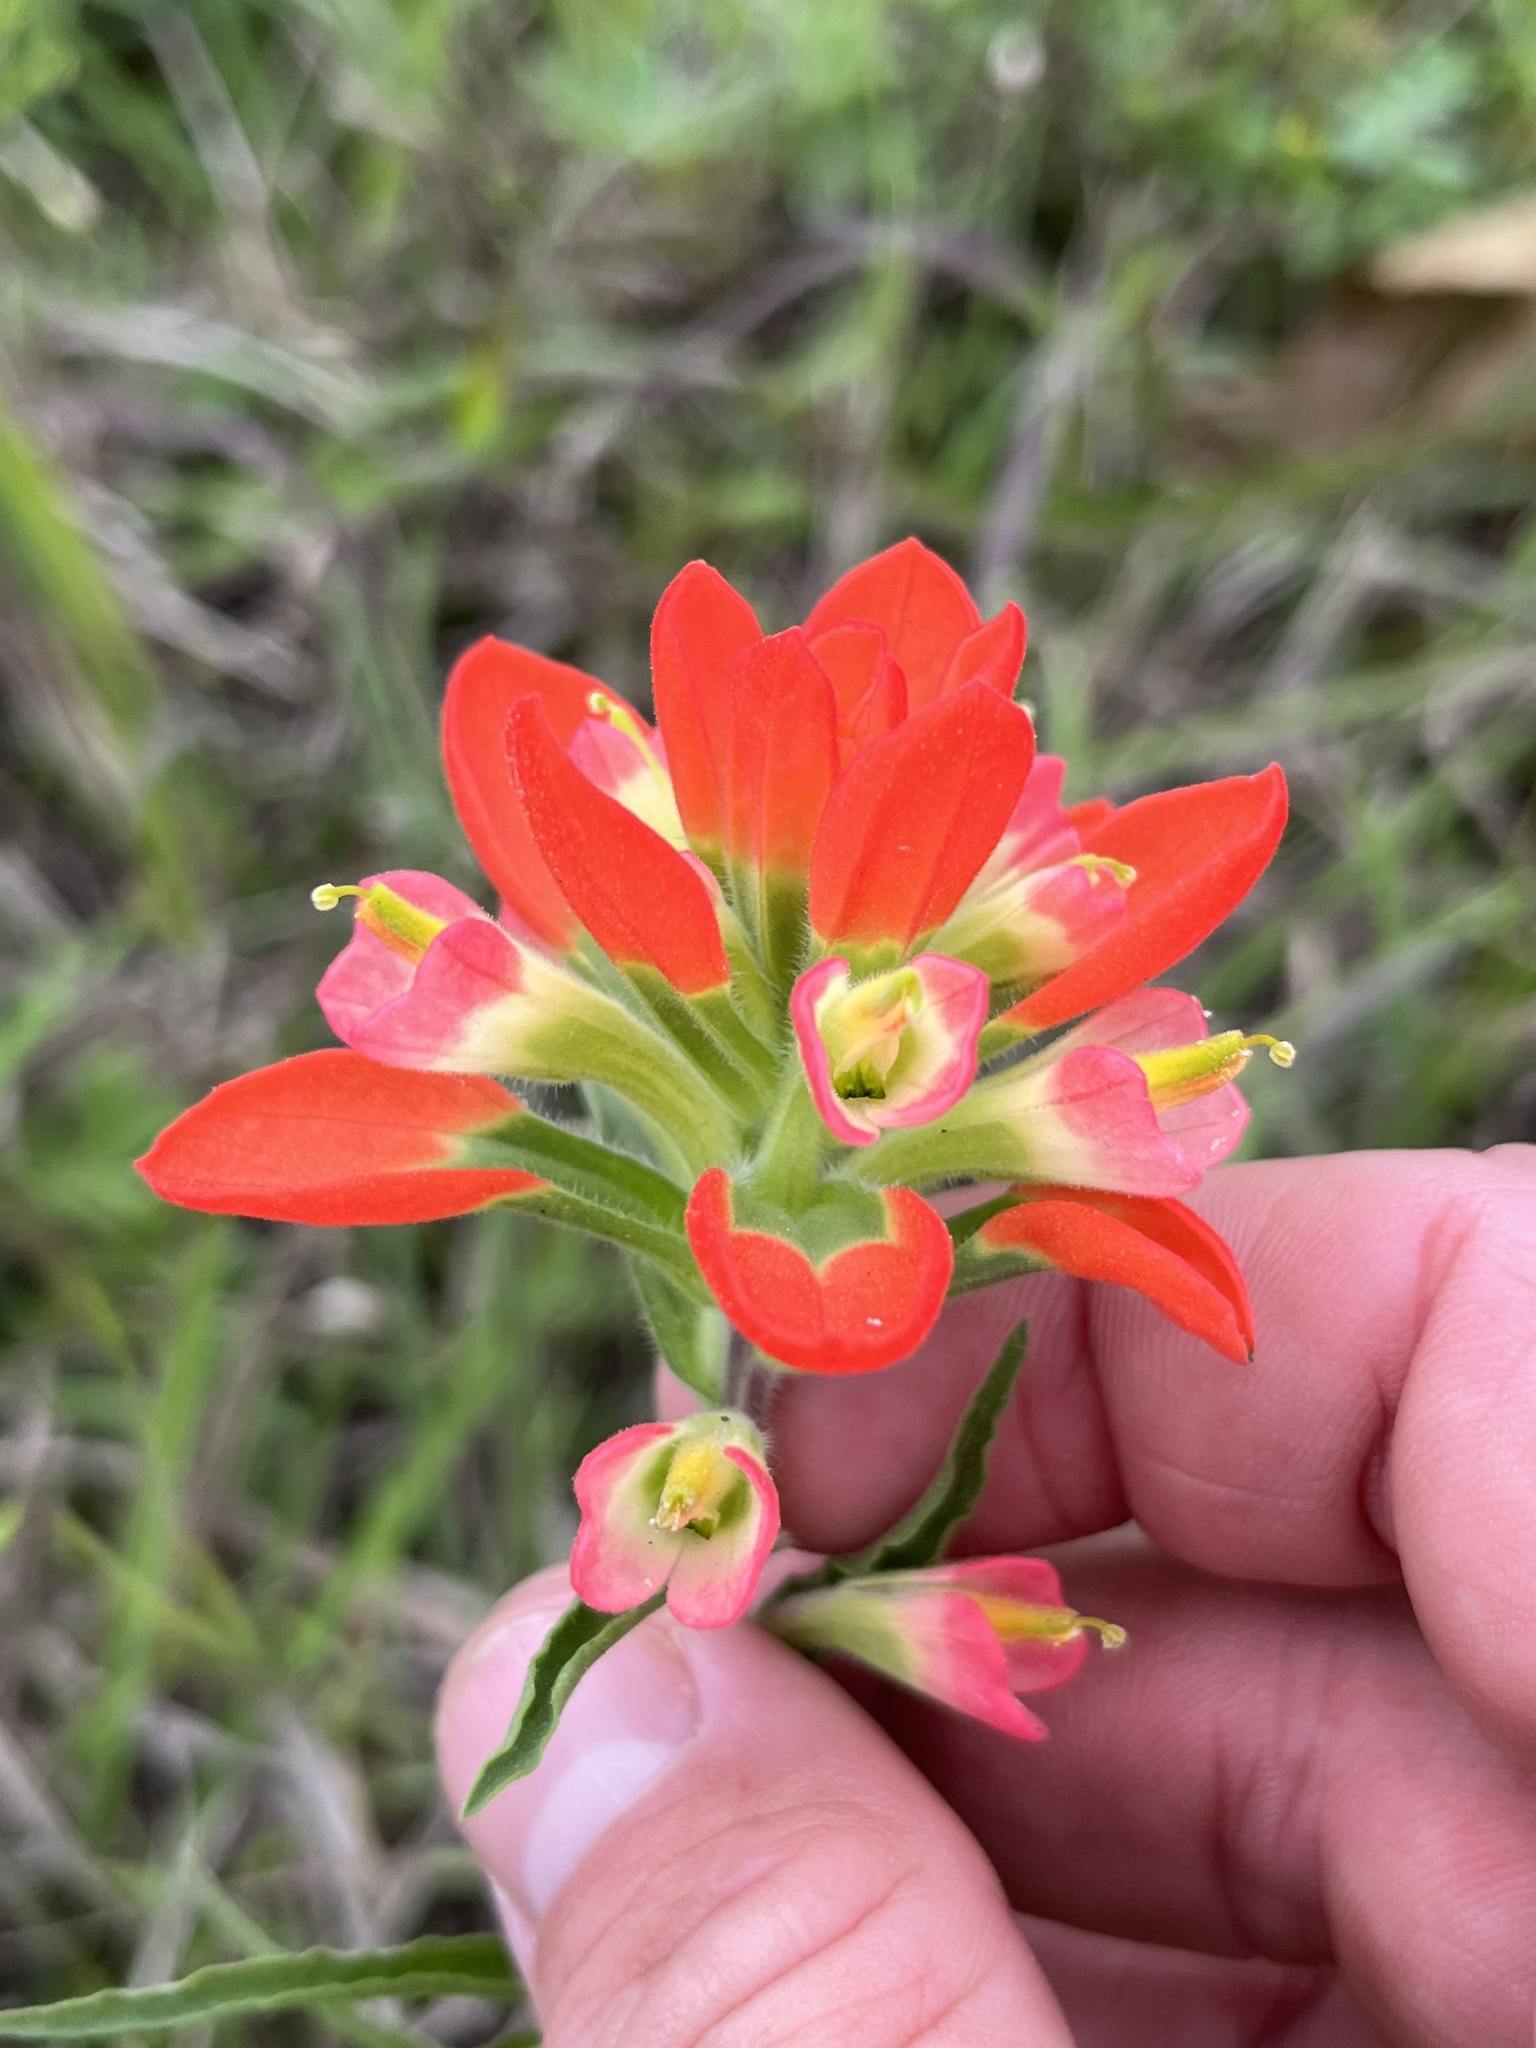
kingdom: Plantae
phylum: Tracheophyta
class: Magnoliopsida
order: Lamiales
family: Orobanchaceae
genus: Castilleja
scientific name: Castilleja indivisa
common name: Texas paintbrush
